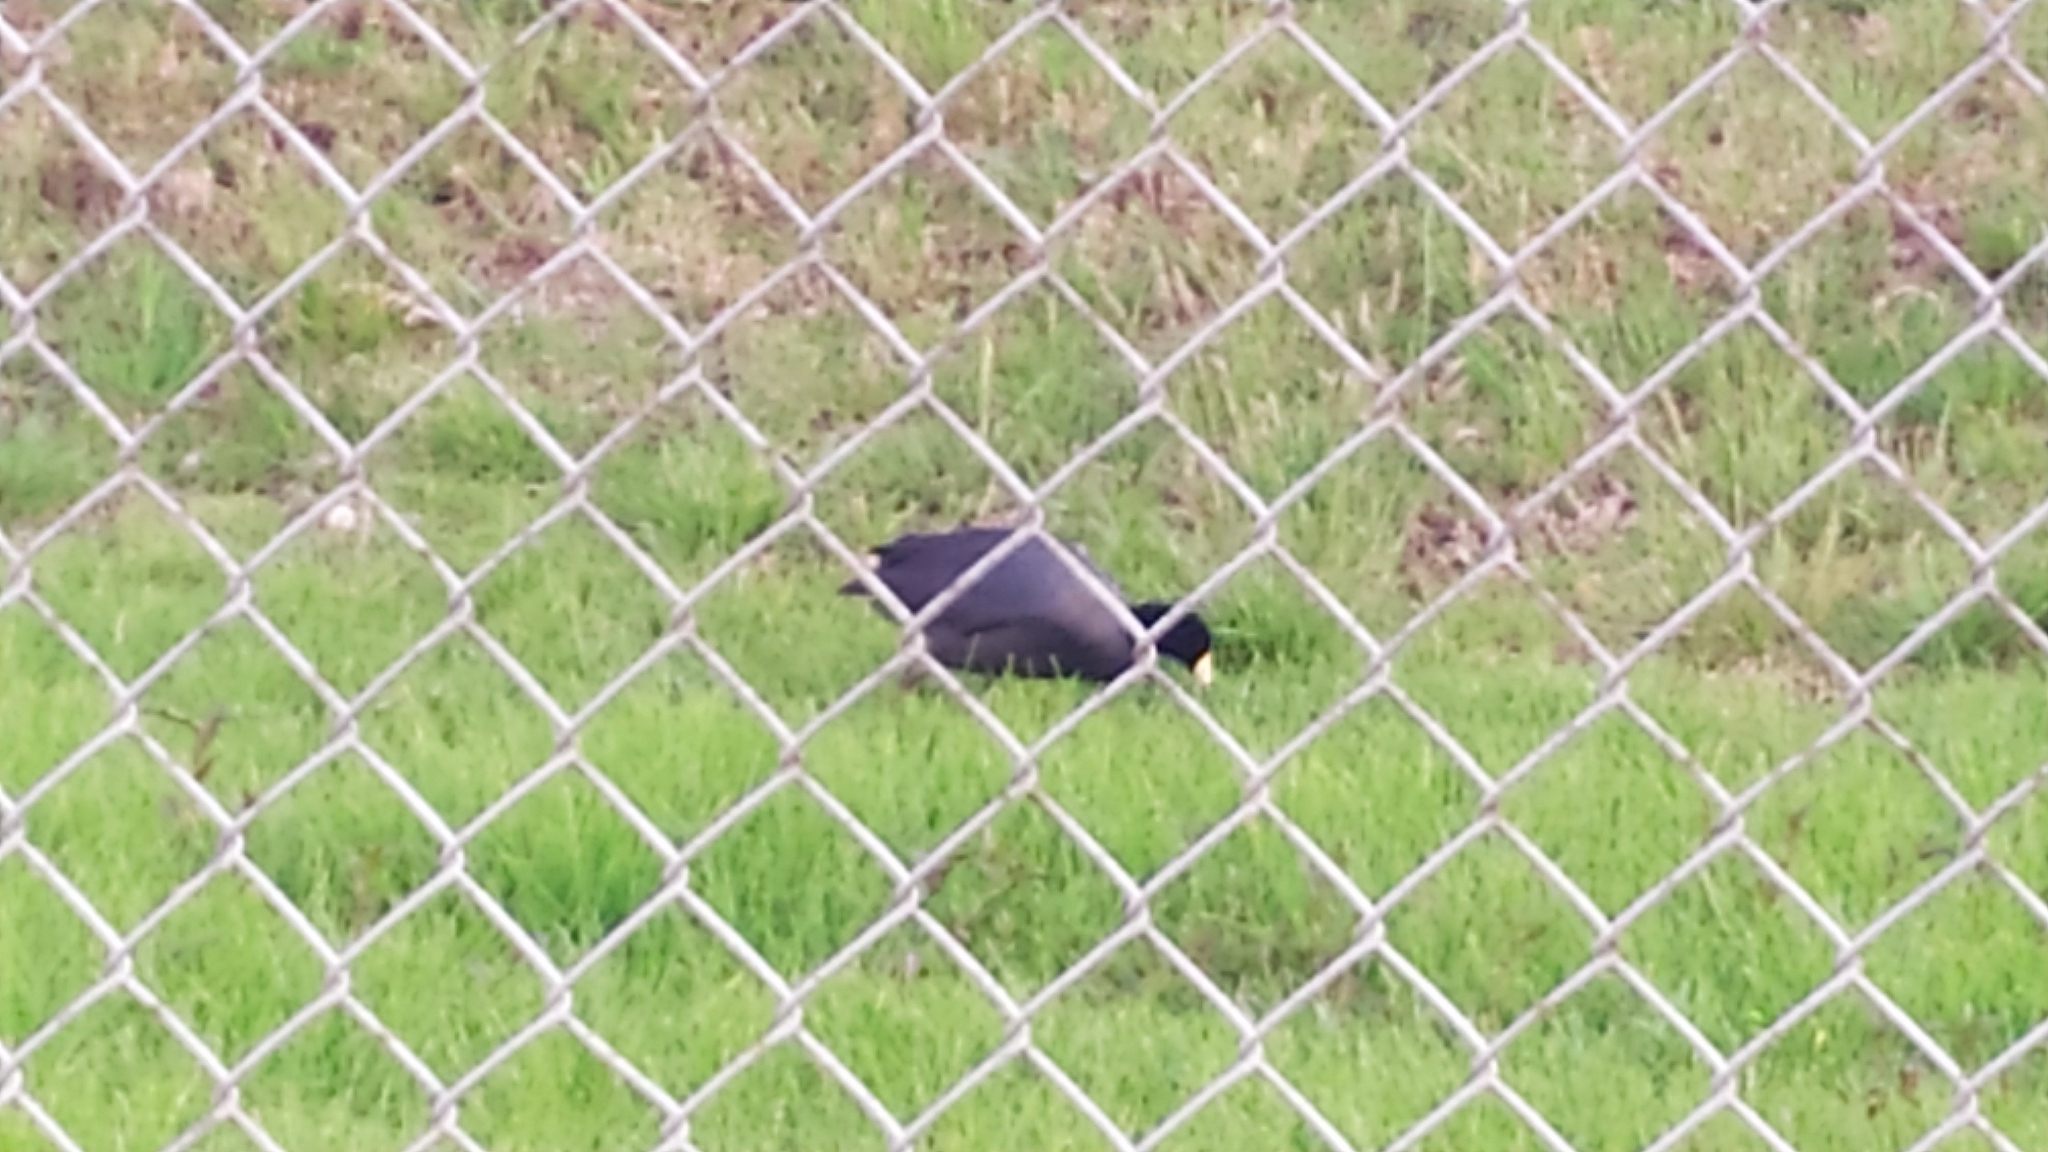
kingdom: Animalia
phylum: Chordata
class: Aves
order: Gruiformes
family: Rallidae
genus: Fulica
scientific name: Fulica americana
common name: American coot
